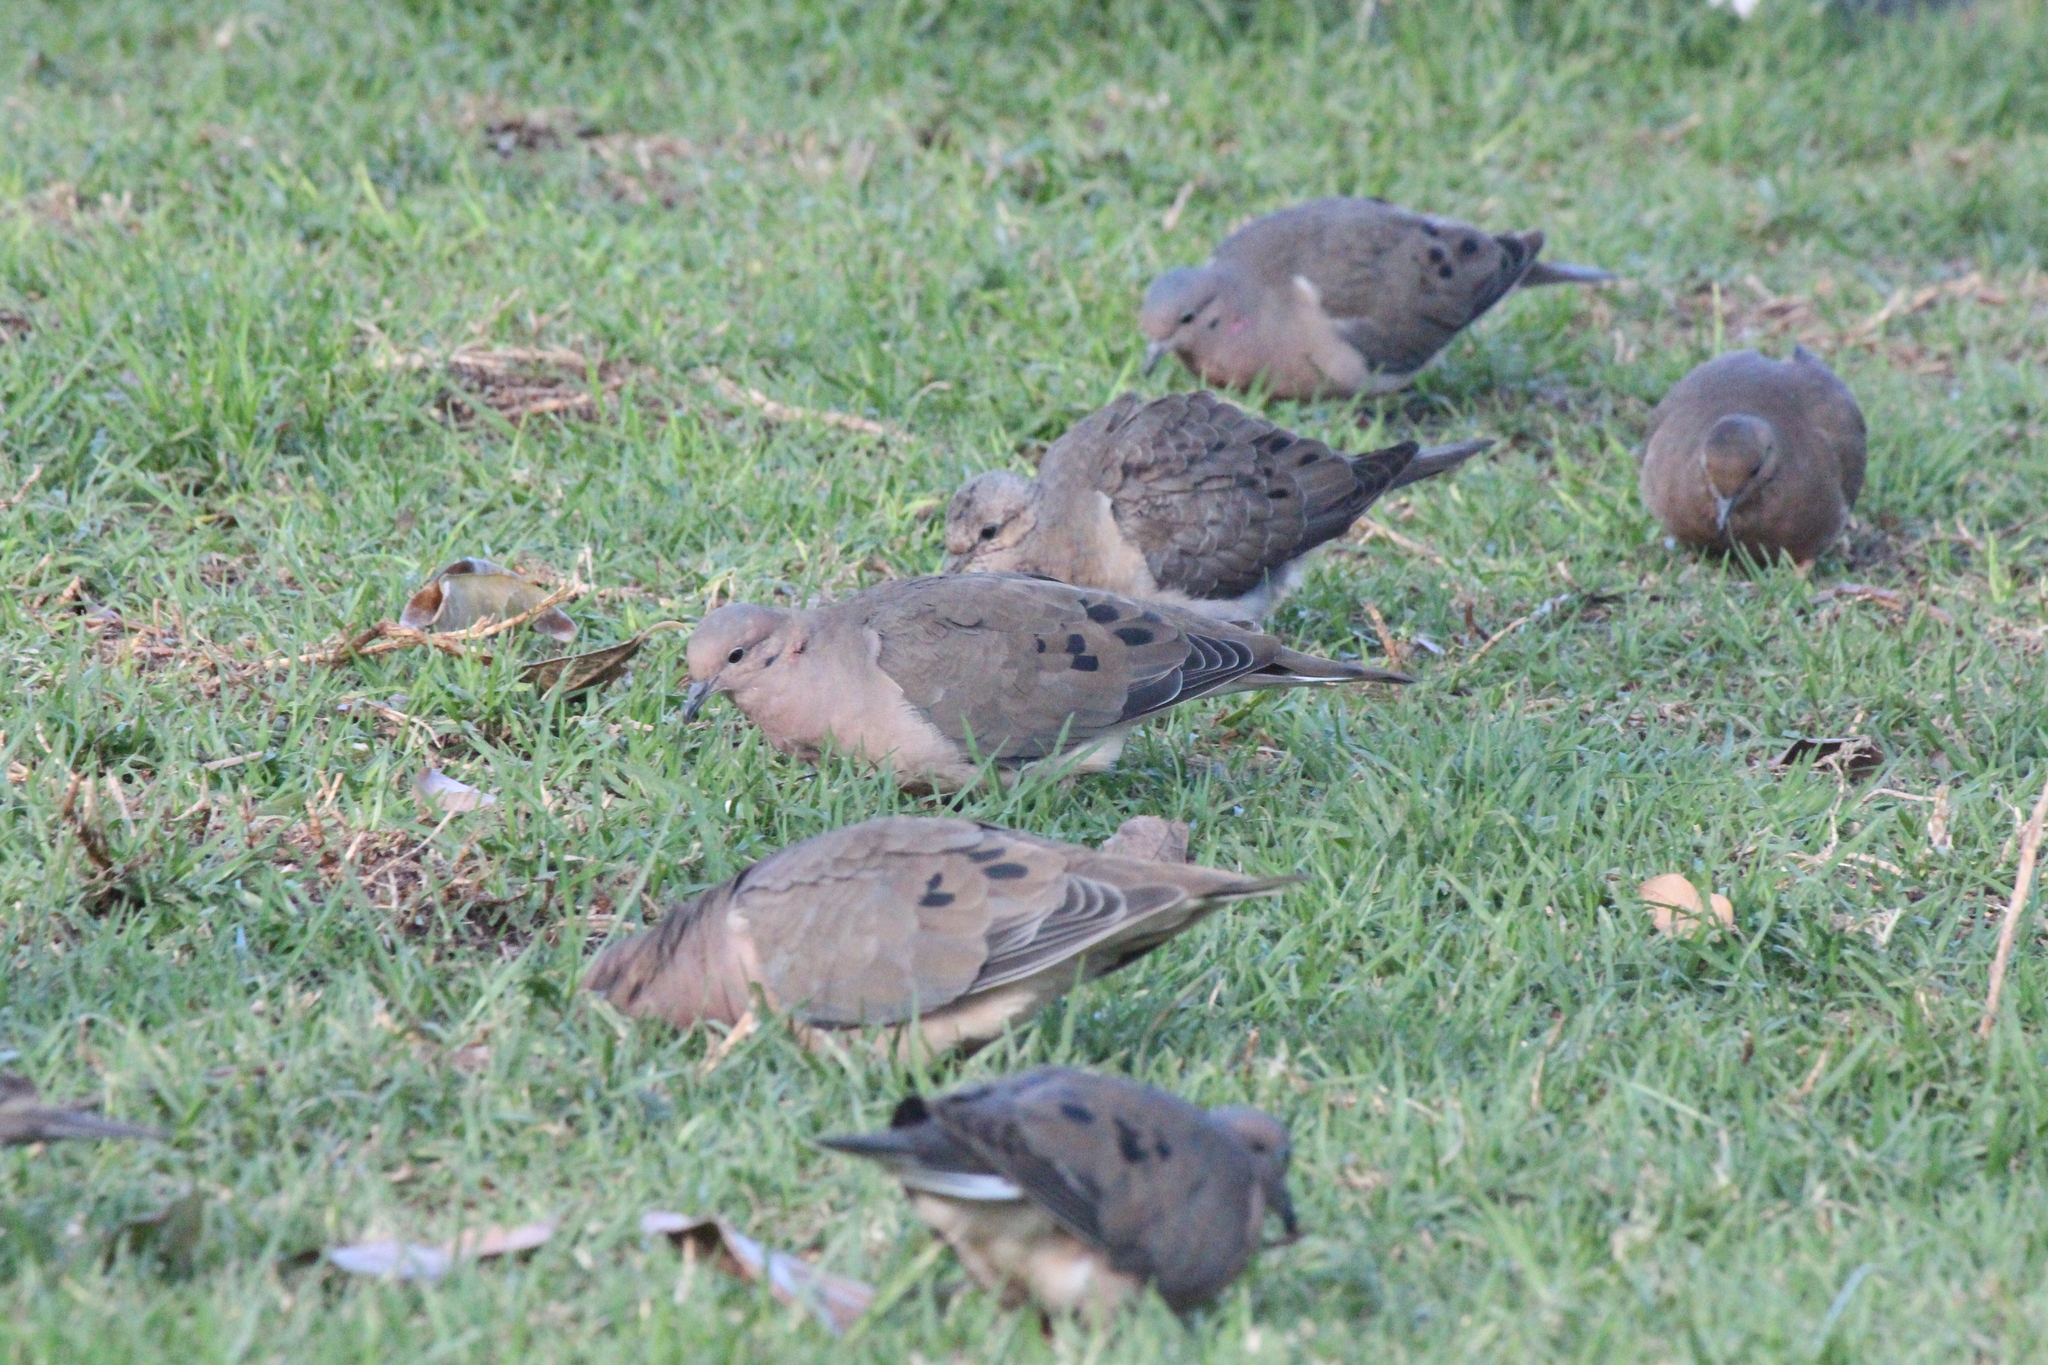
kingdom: Animalia
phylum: Chordata
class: Aves
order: Columbiformes
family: Columbidae
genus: Zenaida
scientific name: Zenaida auriculata
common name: Eared dove
